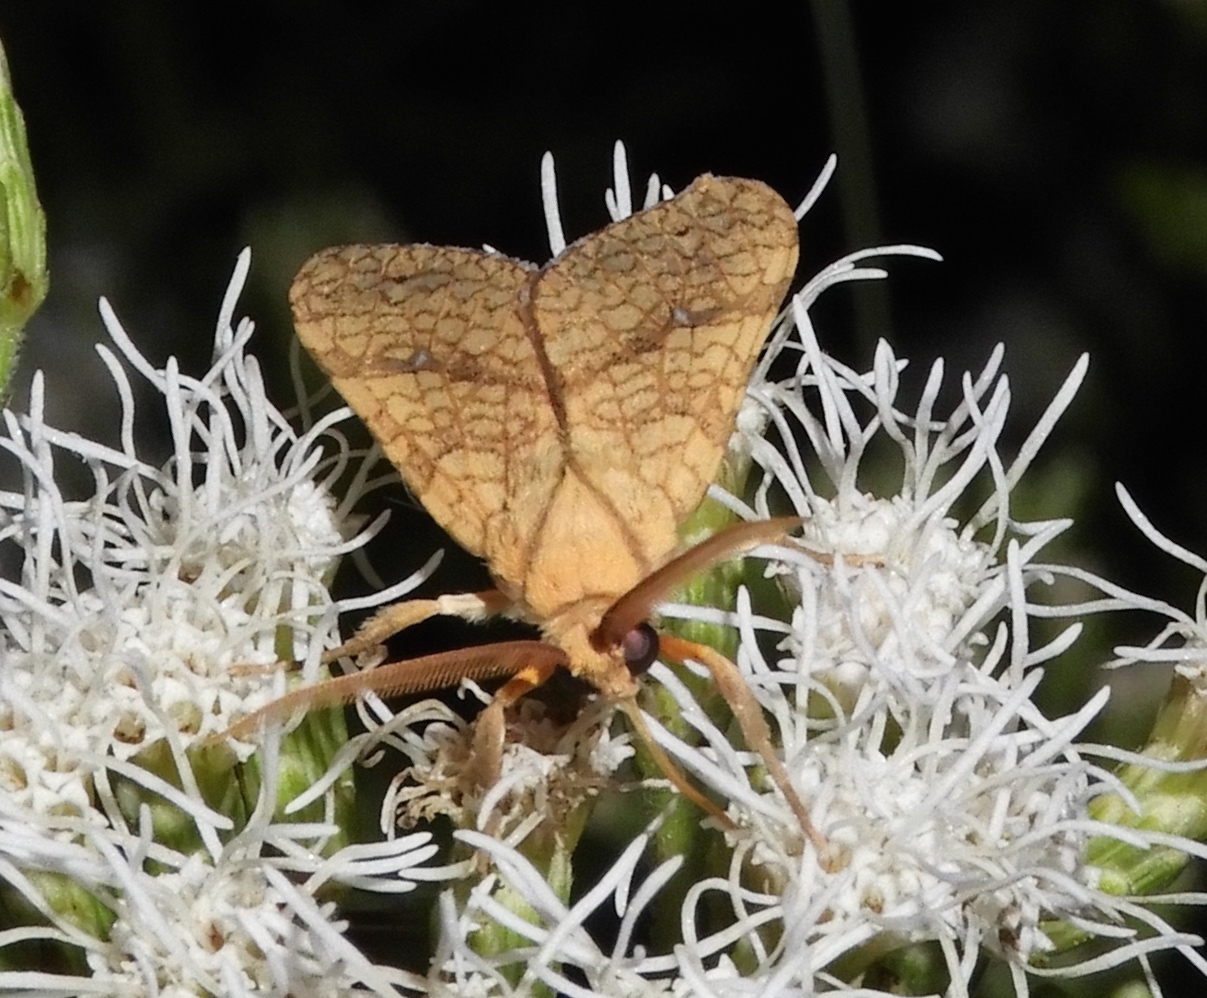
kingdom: Animalia
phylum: Arthropoda
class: Insecta
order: Lepidoptera
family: Erebidae
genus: Lophocampa
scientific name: Lophocampa
